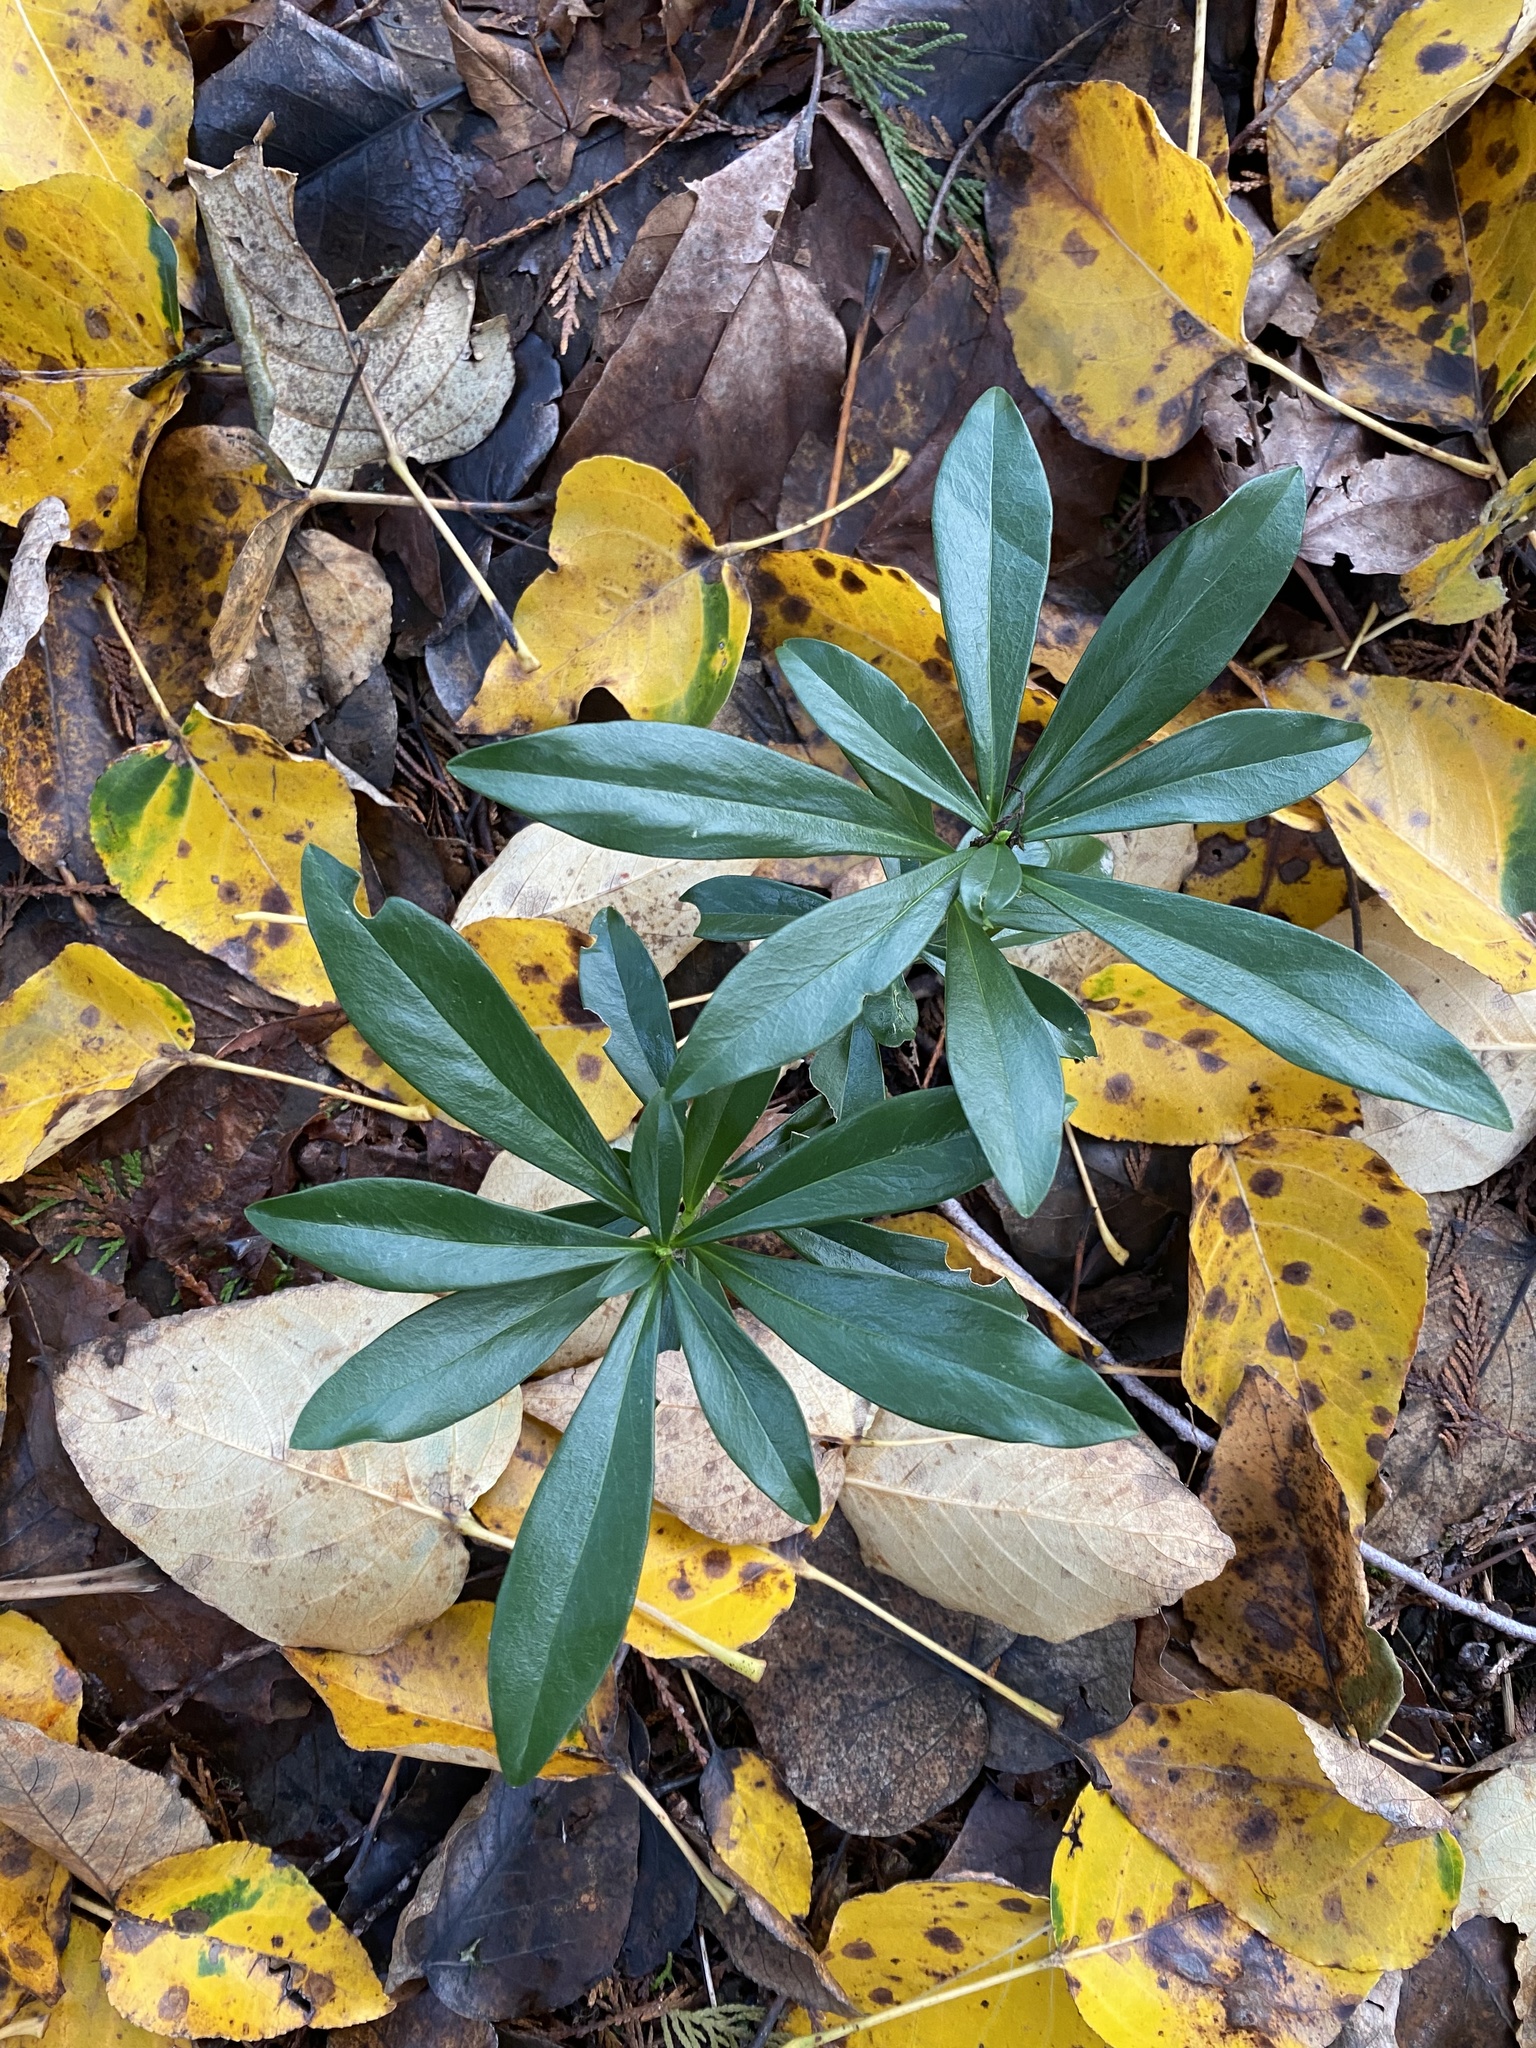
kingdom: Plantae
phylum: Tracheophyta
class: Magnoliopsida
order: Malvales
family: Thymelaeaceae
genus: Daphne
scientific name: Daphne laureola
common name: Spurge-laurel
